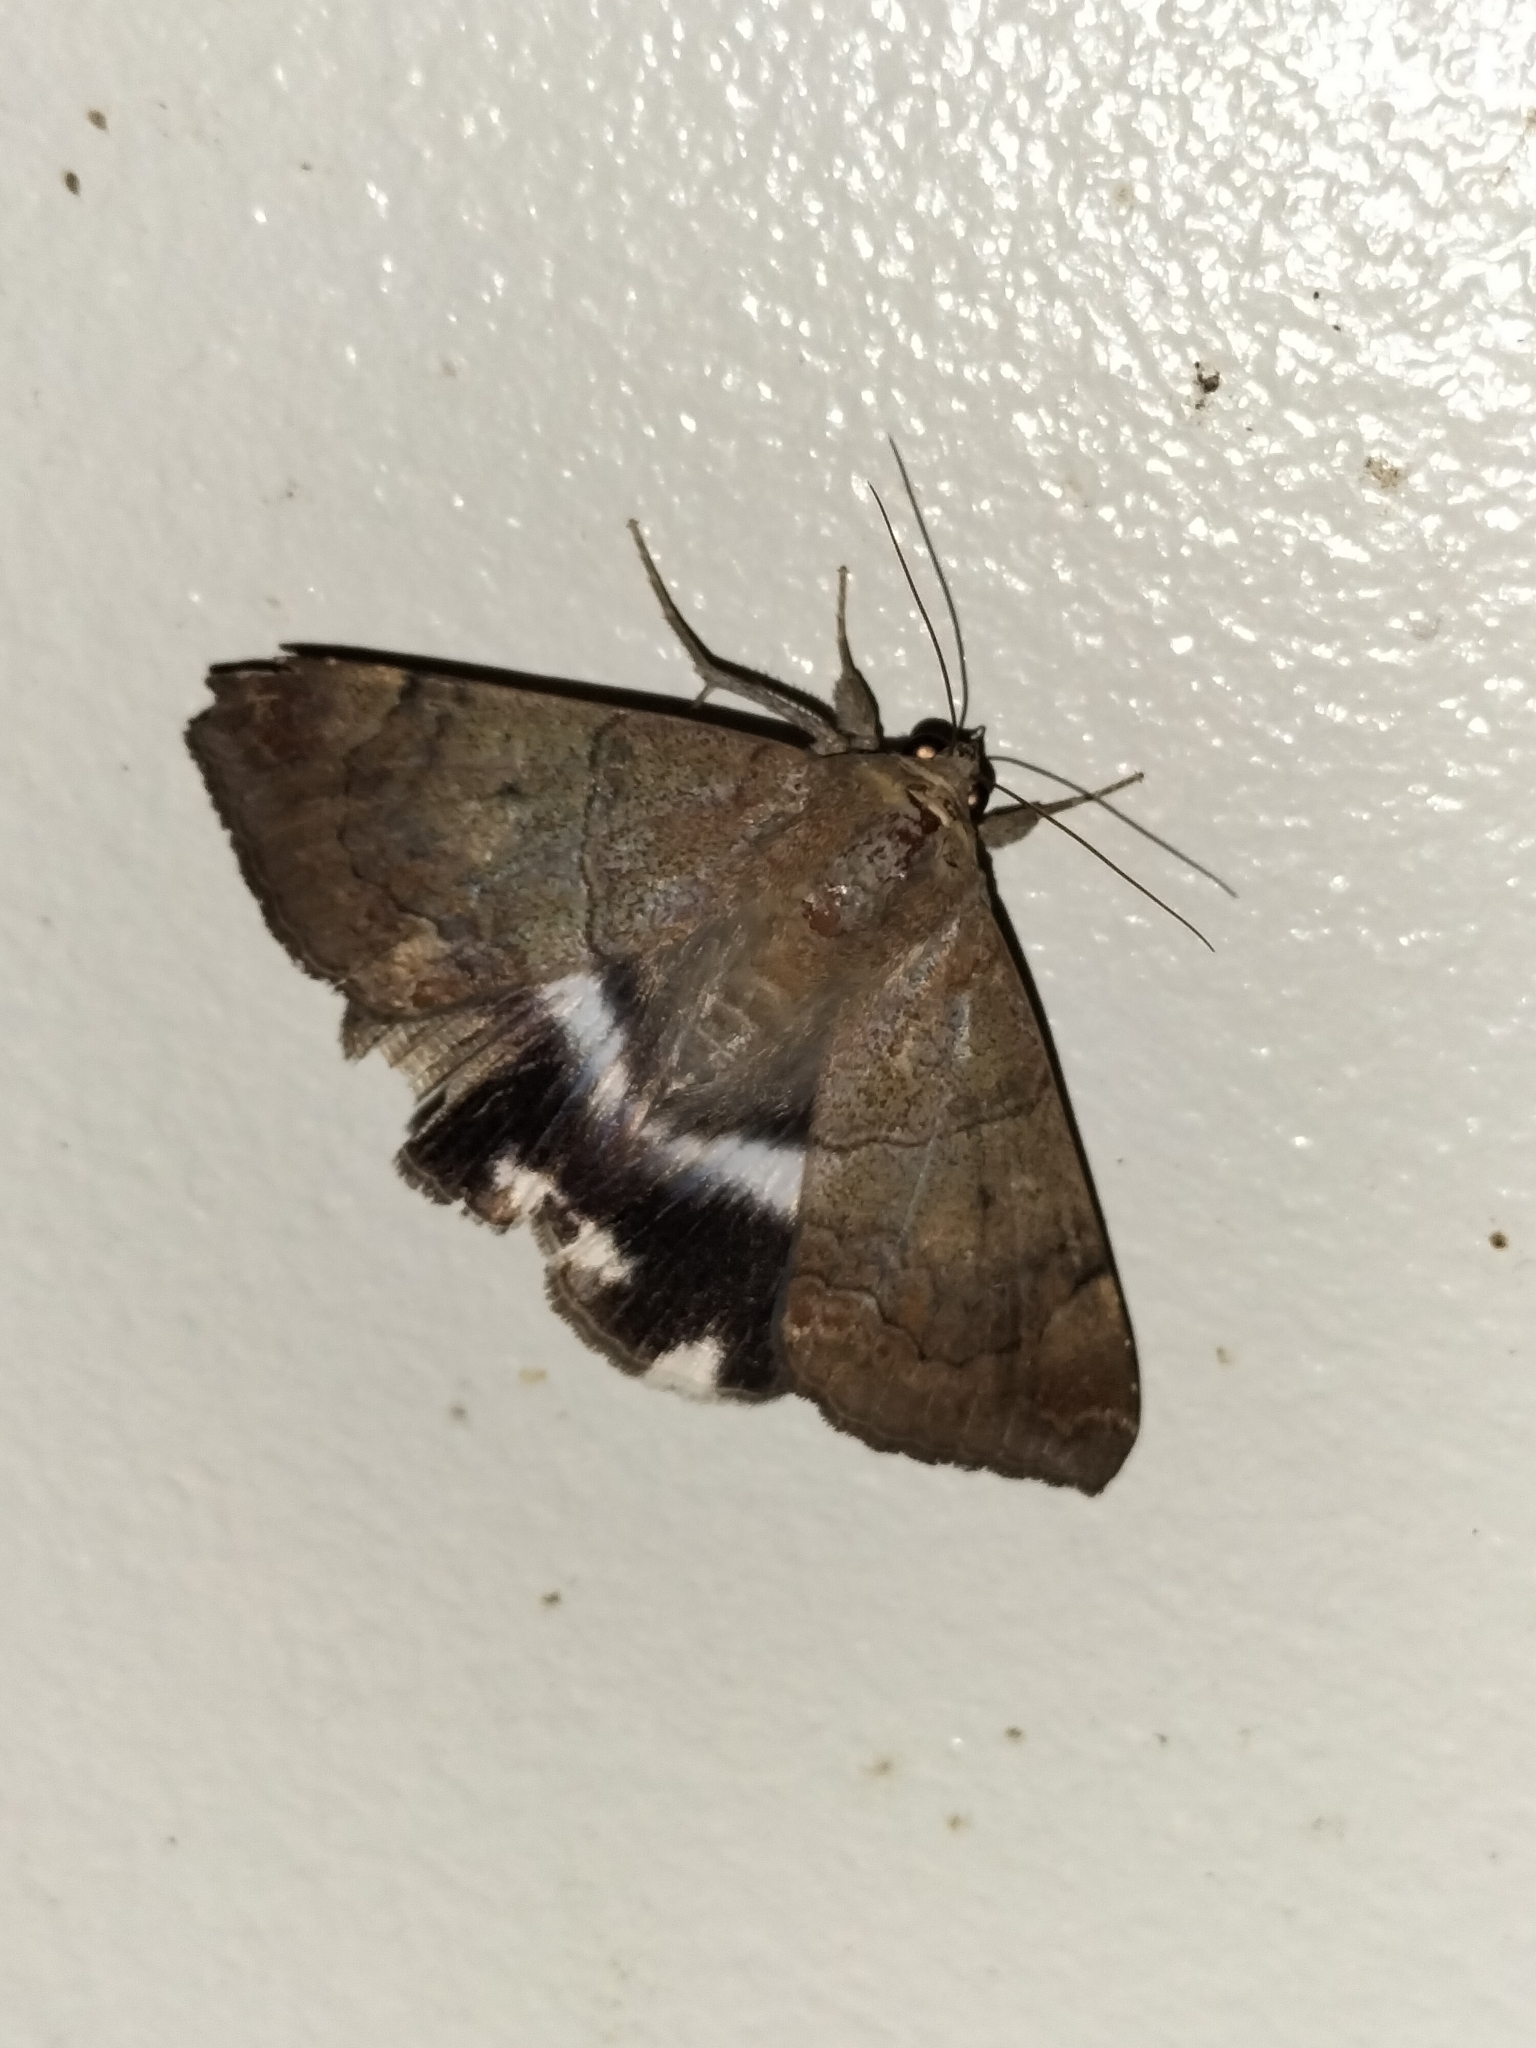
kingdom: Animalia
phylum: Arthropoda
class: Insecta
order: Lepidoptera
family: Erebidae
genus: Achaea
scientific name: Achaea janata
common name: Croton caterpillar
